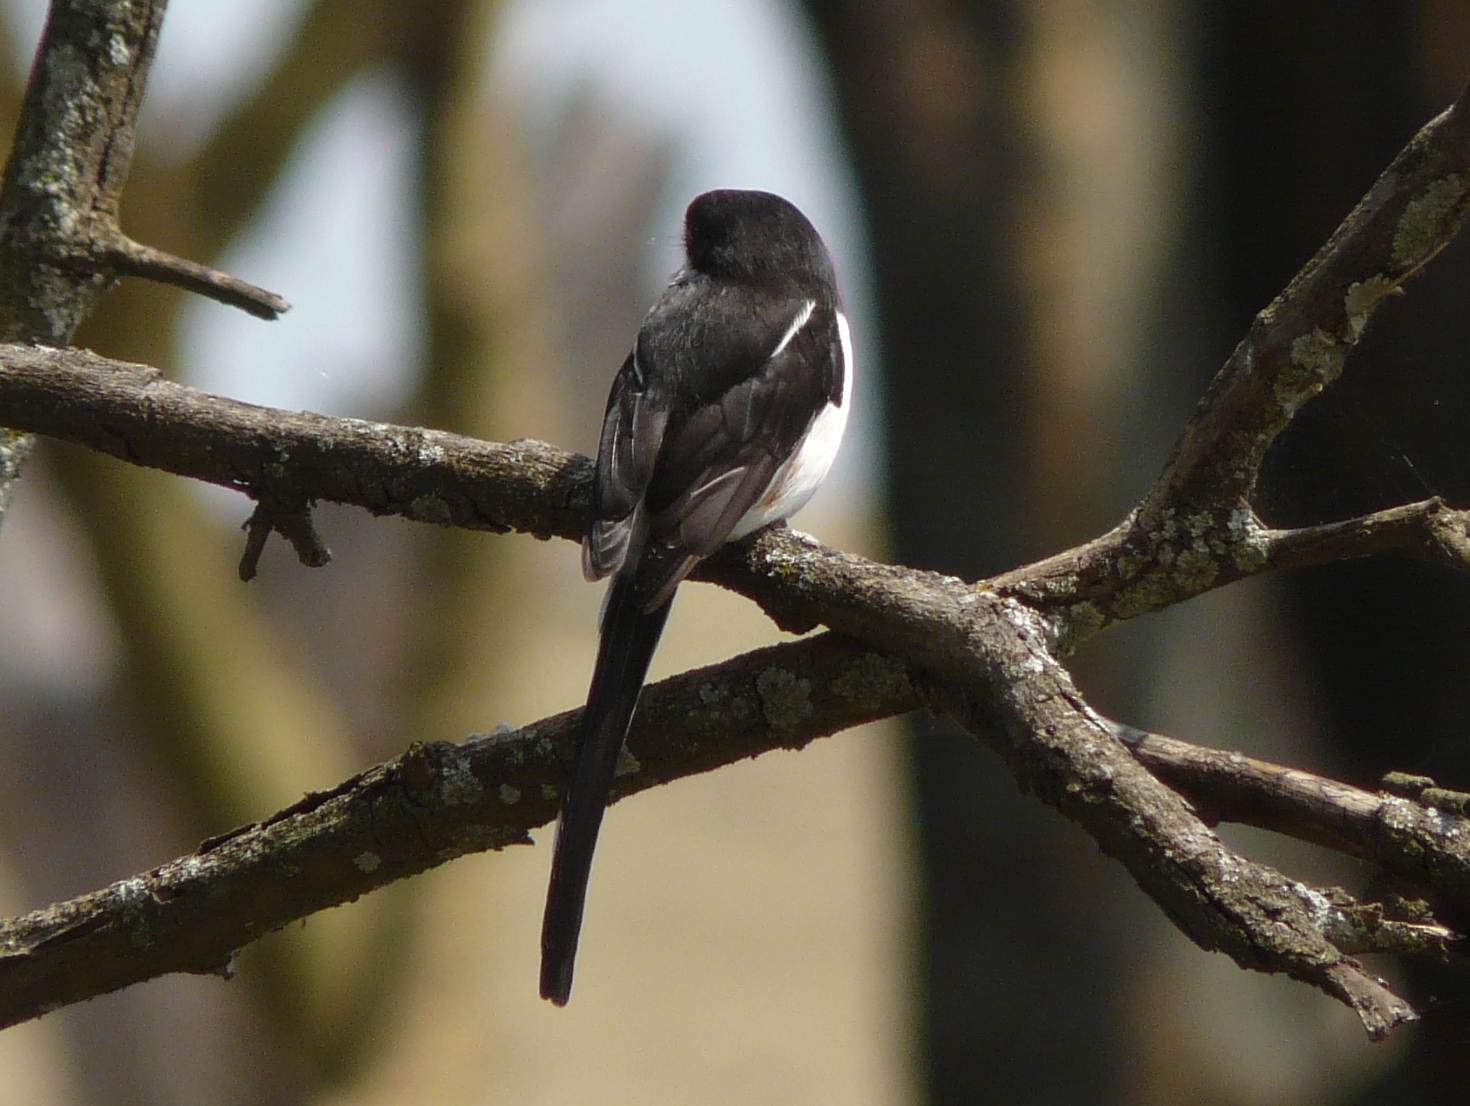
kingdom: Animalia
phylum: Chordata
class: Aves
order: Passeriformes
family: Laniidae
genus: Lanius
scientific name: Lanius humeralis
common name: Northern fiscal
